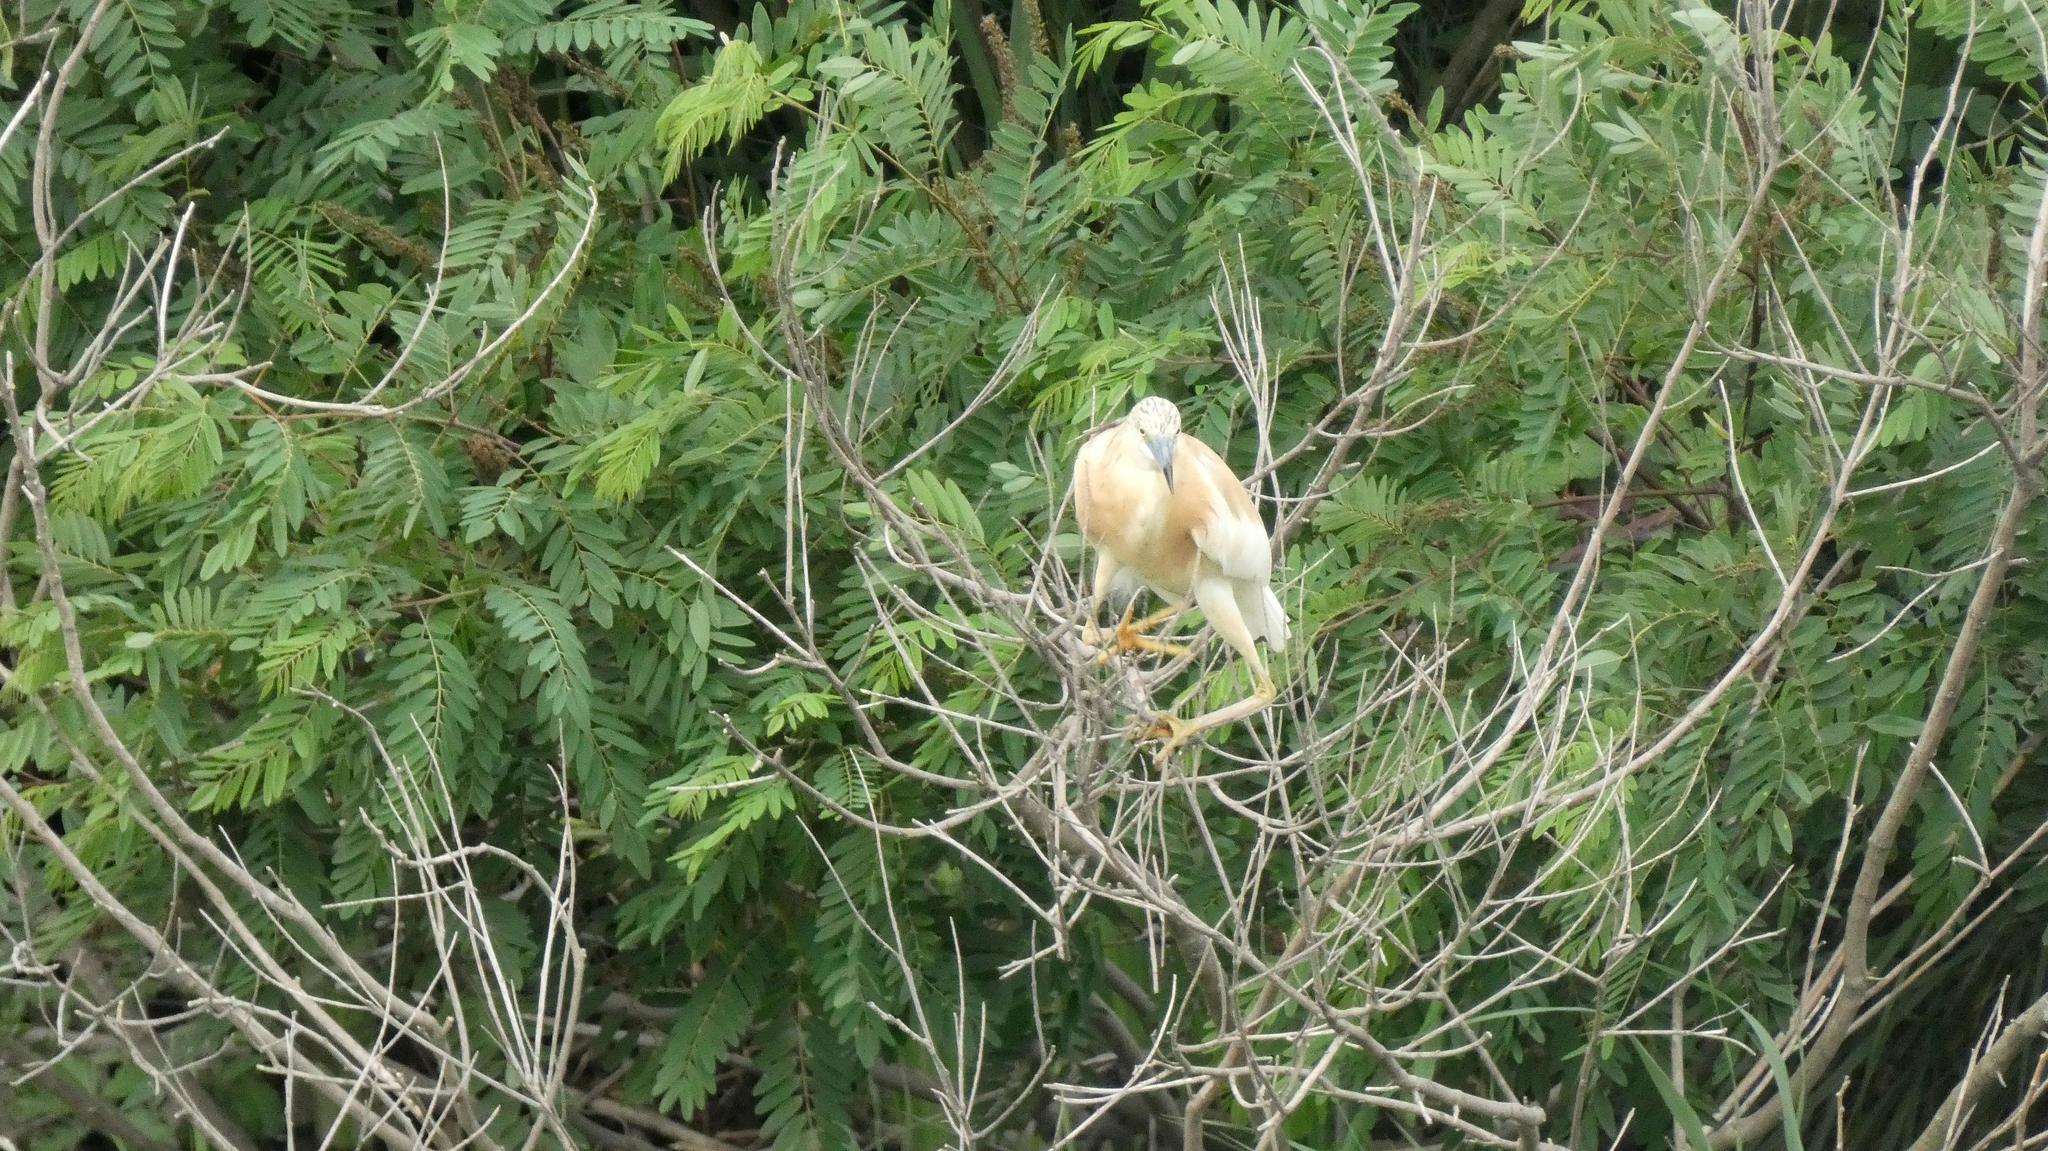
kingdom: Animalia
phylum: Chordata
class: Aves
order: Pelecaniformes
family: Ardeidae
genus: Ardeola
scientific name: Ardeola ralloides
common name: Squacco heron
